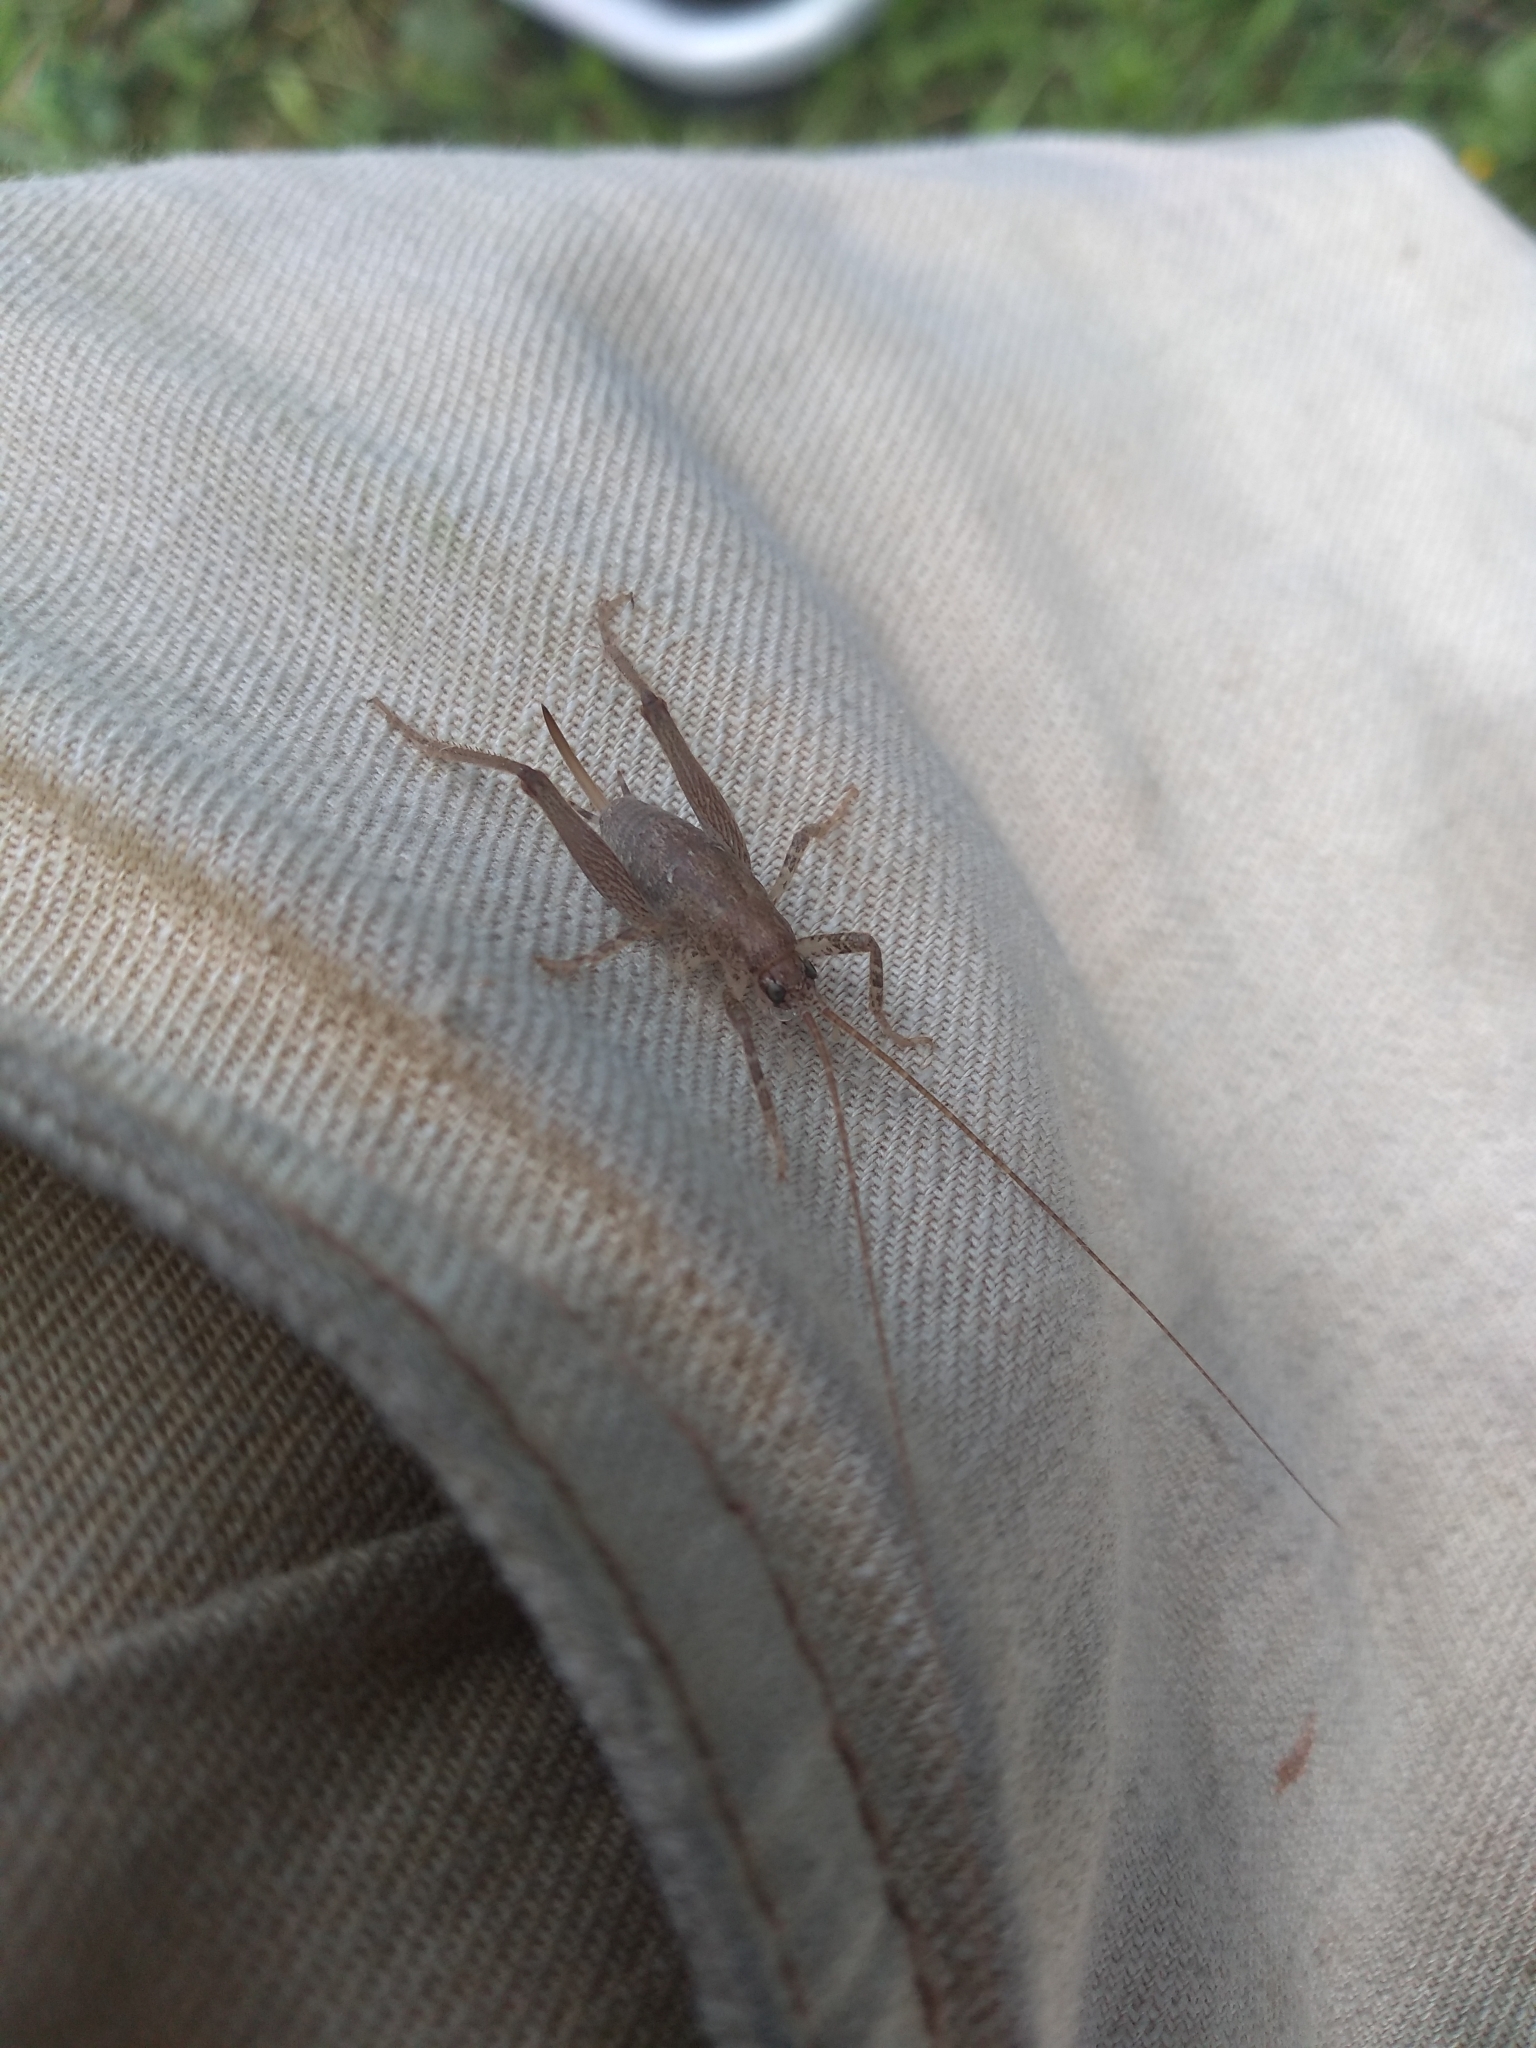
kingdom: Animalia
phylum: Arthropoda
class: Insecta
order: Orthoptera
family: Rhaphidophoridae
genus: Isoplectron
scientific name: Isoplectron armatum
